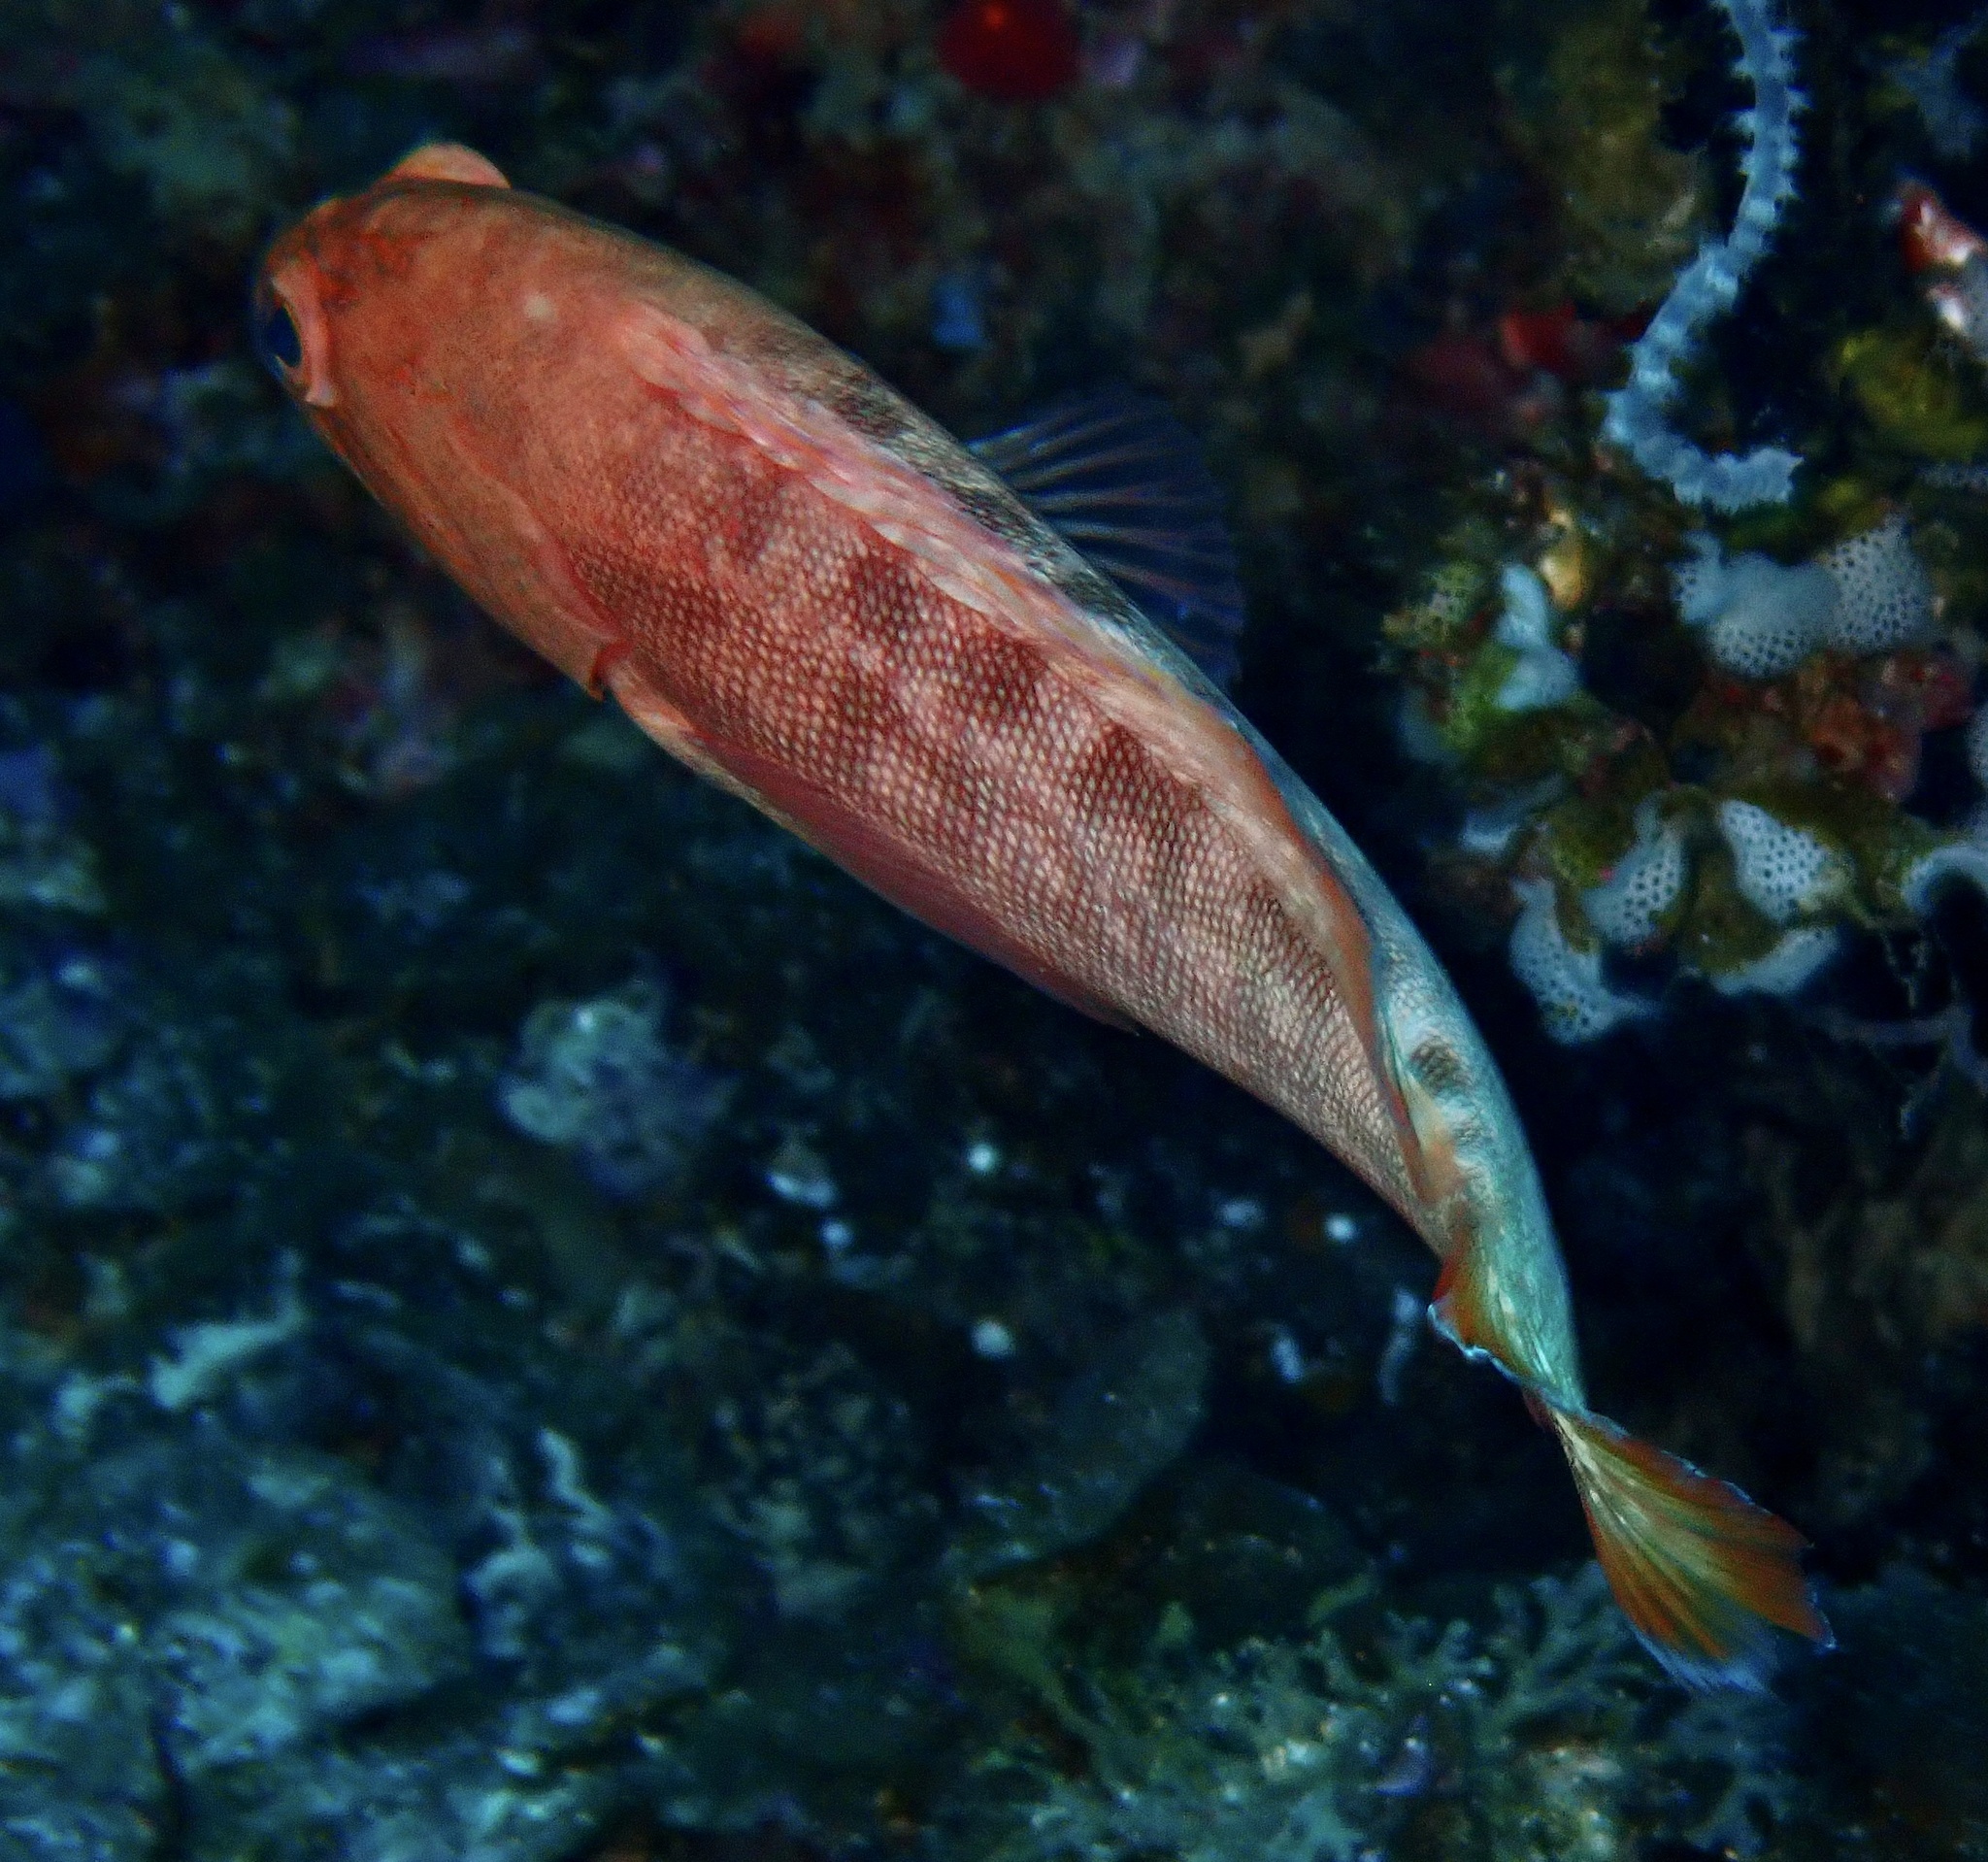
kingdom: Animalia
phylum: Chordata
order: Perciformes
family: Serranidae
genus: Cephalopholis
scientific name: Cephalopholis spiloparaea
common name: Strawberry grouper
